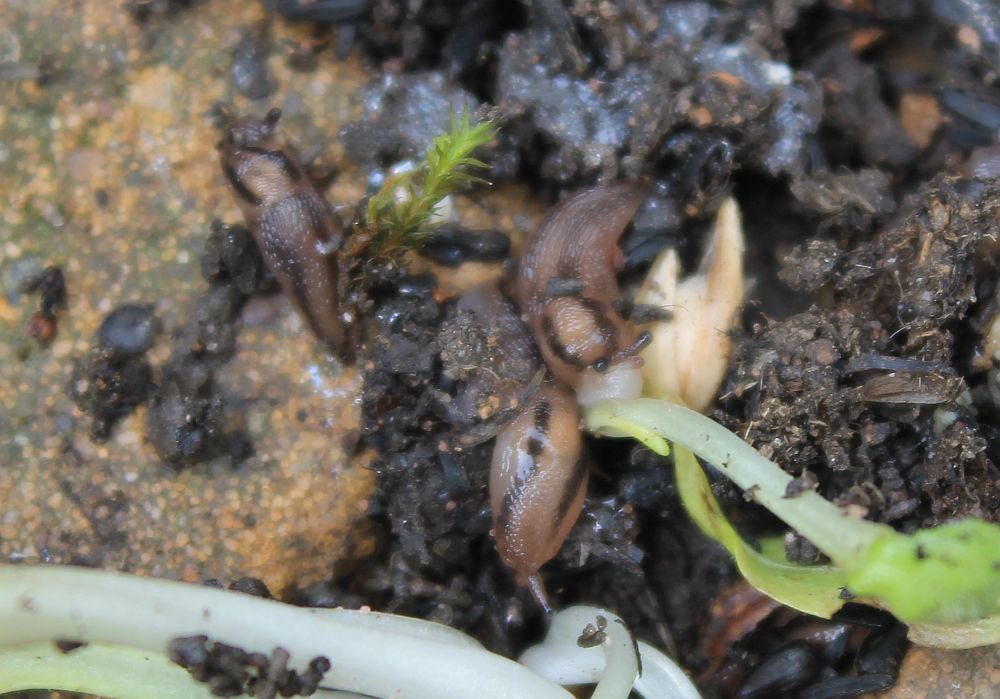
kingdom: Animalia
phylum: Mollusca
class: Gastropoda
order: Stylommatophora
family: Limacidae
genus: Ambigolimax
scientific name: Ambigolimax
